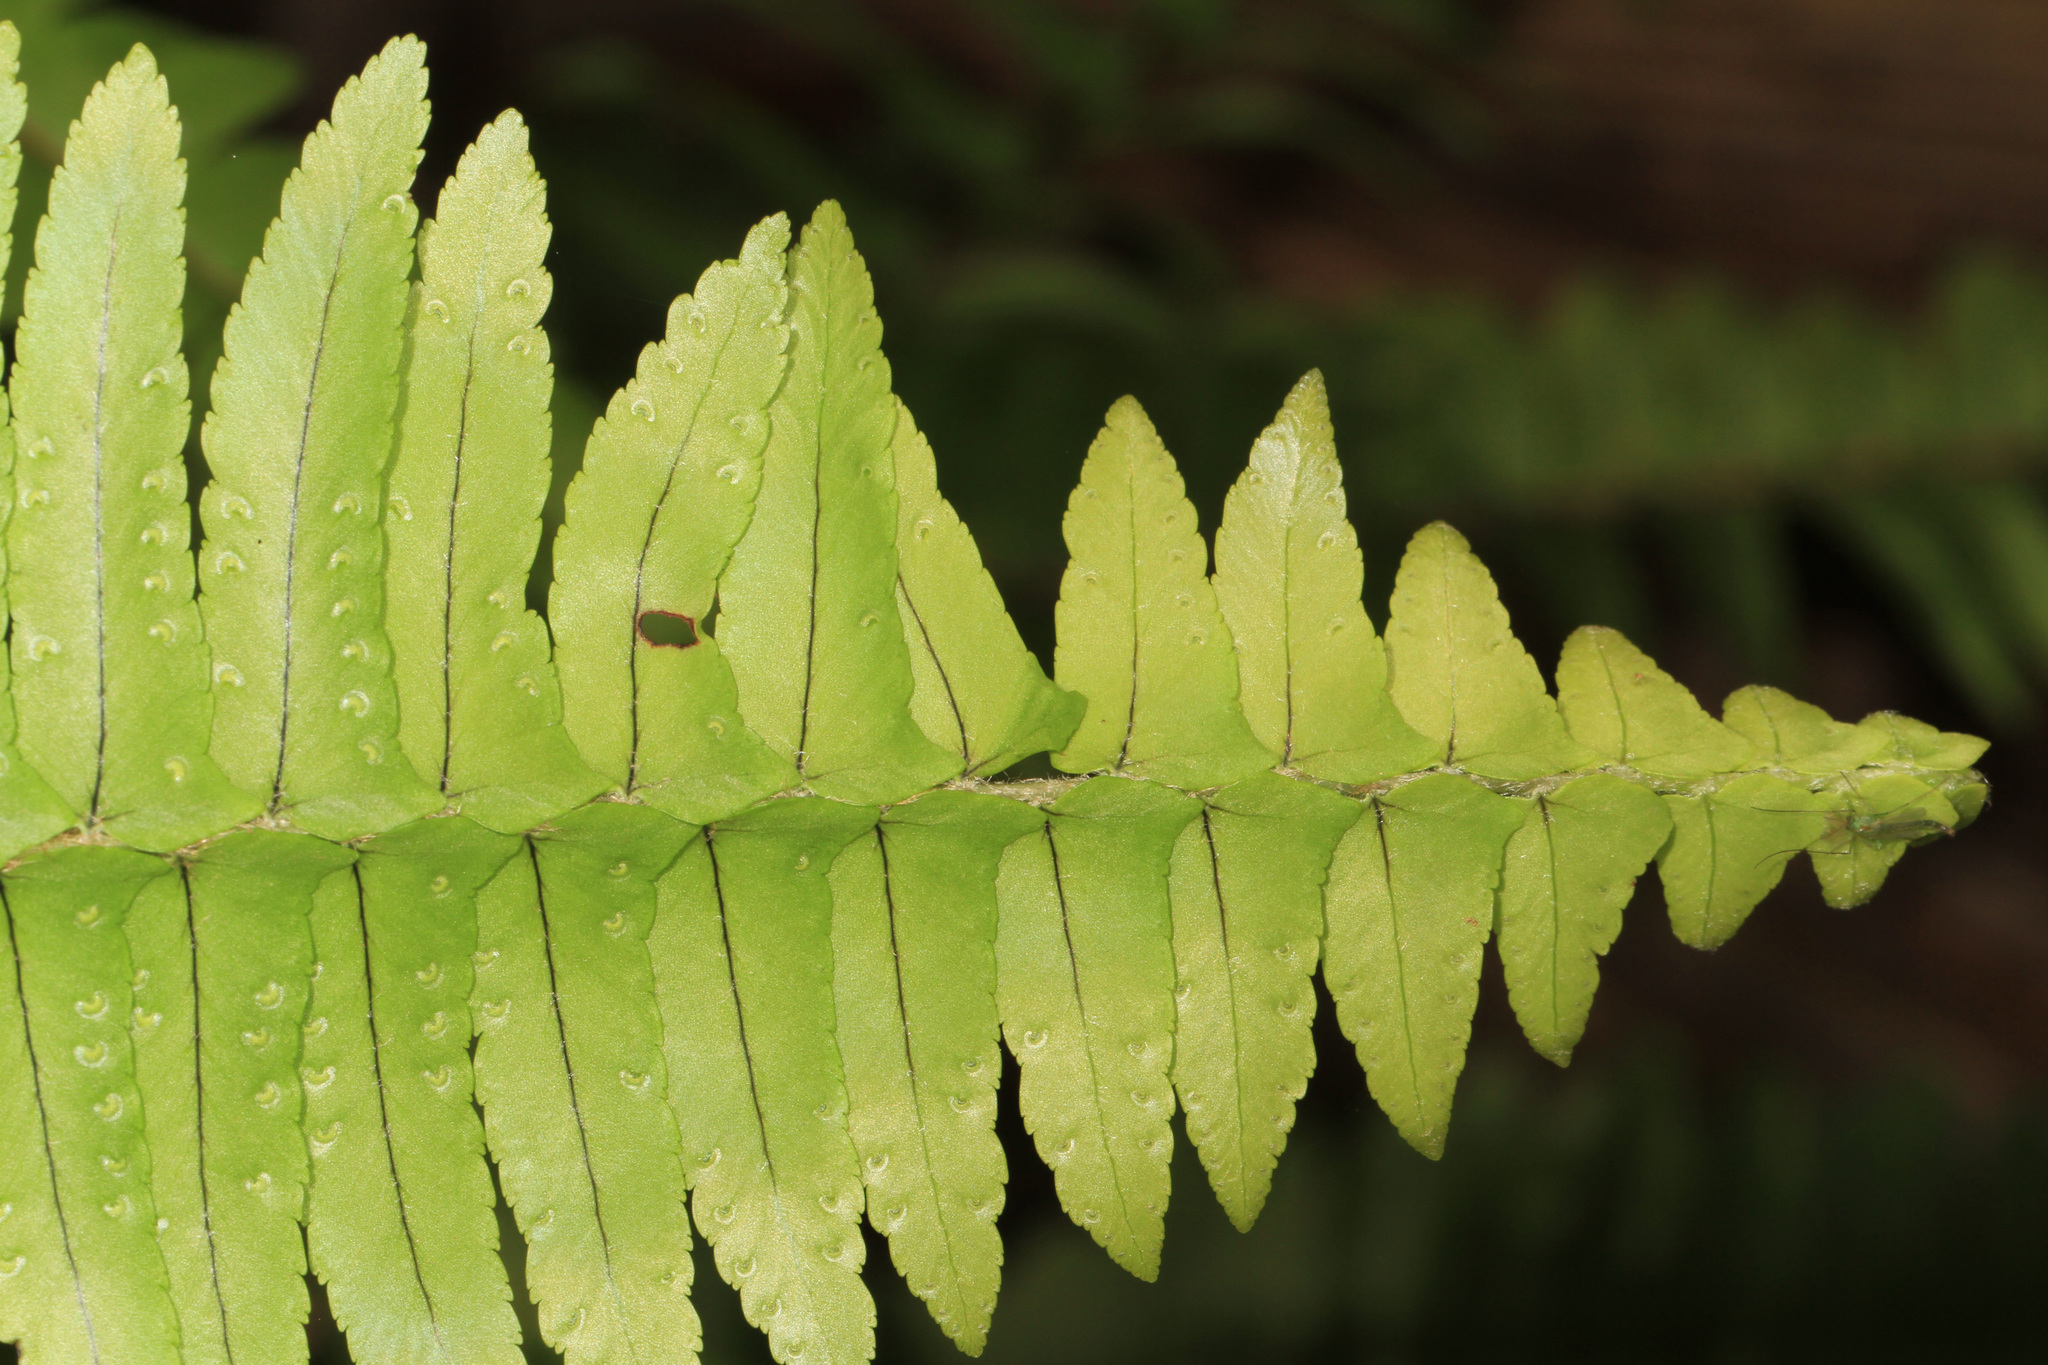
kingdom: Plantae
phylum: Tracheophyta
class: Polypodiopsida
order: Polypodiales
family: Nephrolepidaceae
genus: Nephrolepis
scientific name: Nephrolepis cordifolia
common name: Narrow swordfern
